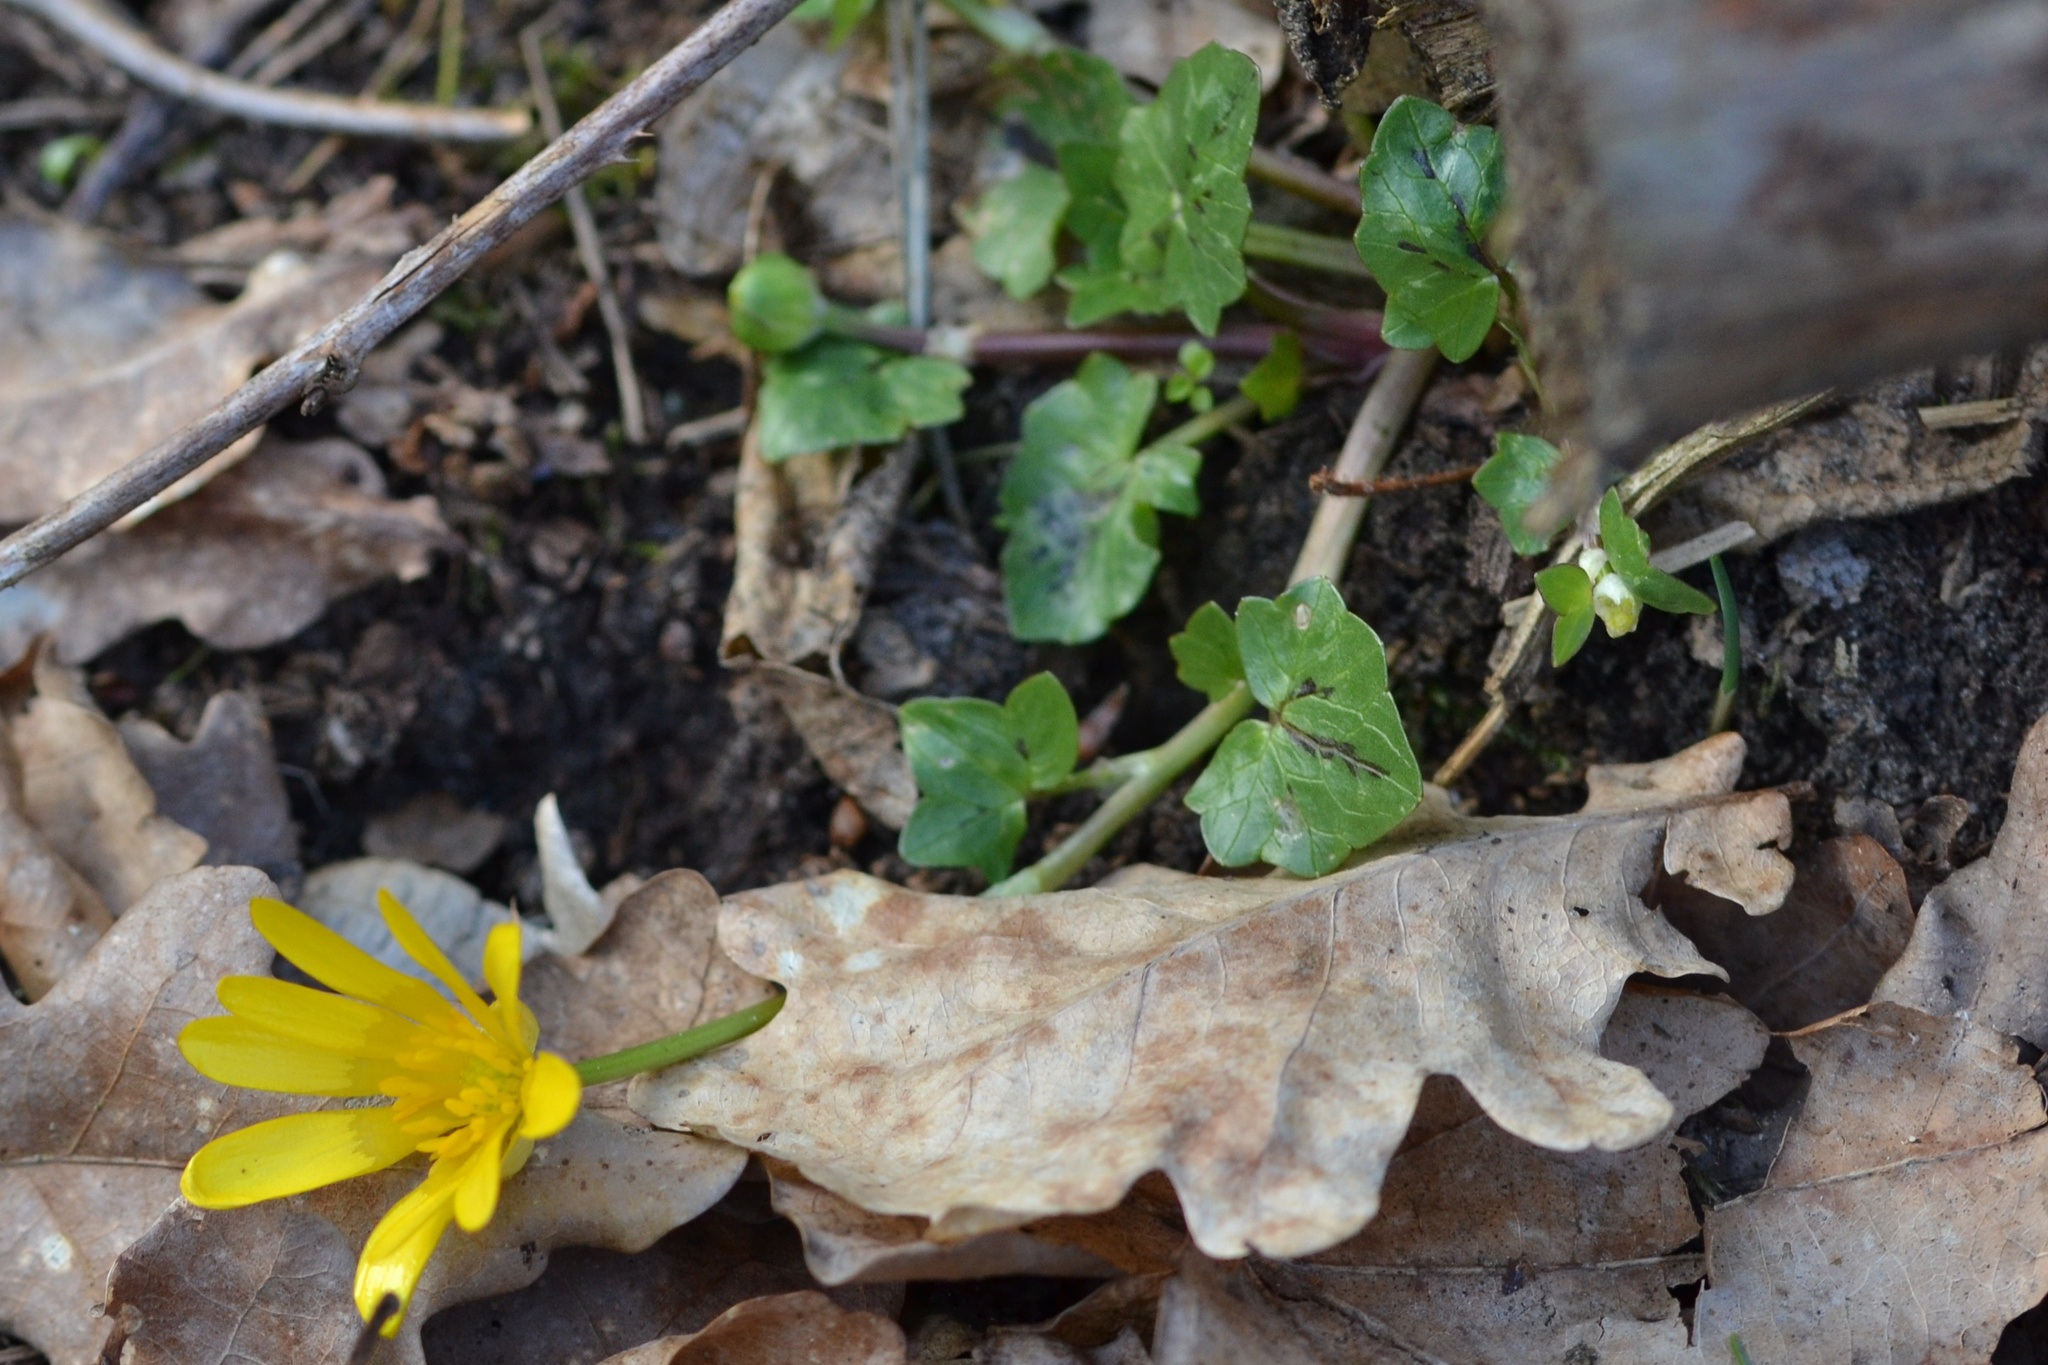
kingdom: Plantae
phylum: Tracheophyta
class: Magnoliopsida
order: Ranunculales
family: Ranunculaceae
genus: Ficaria
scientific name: Ficaria verna
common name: Lesser celandine
